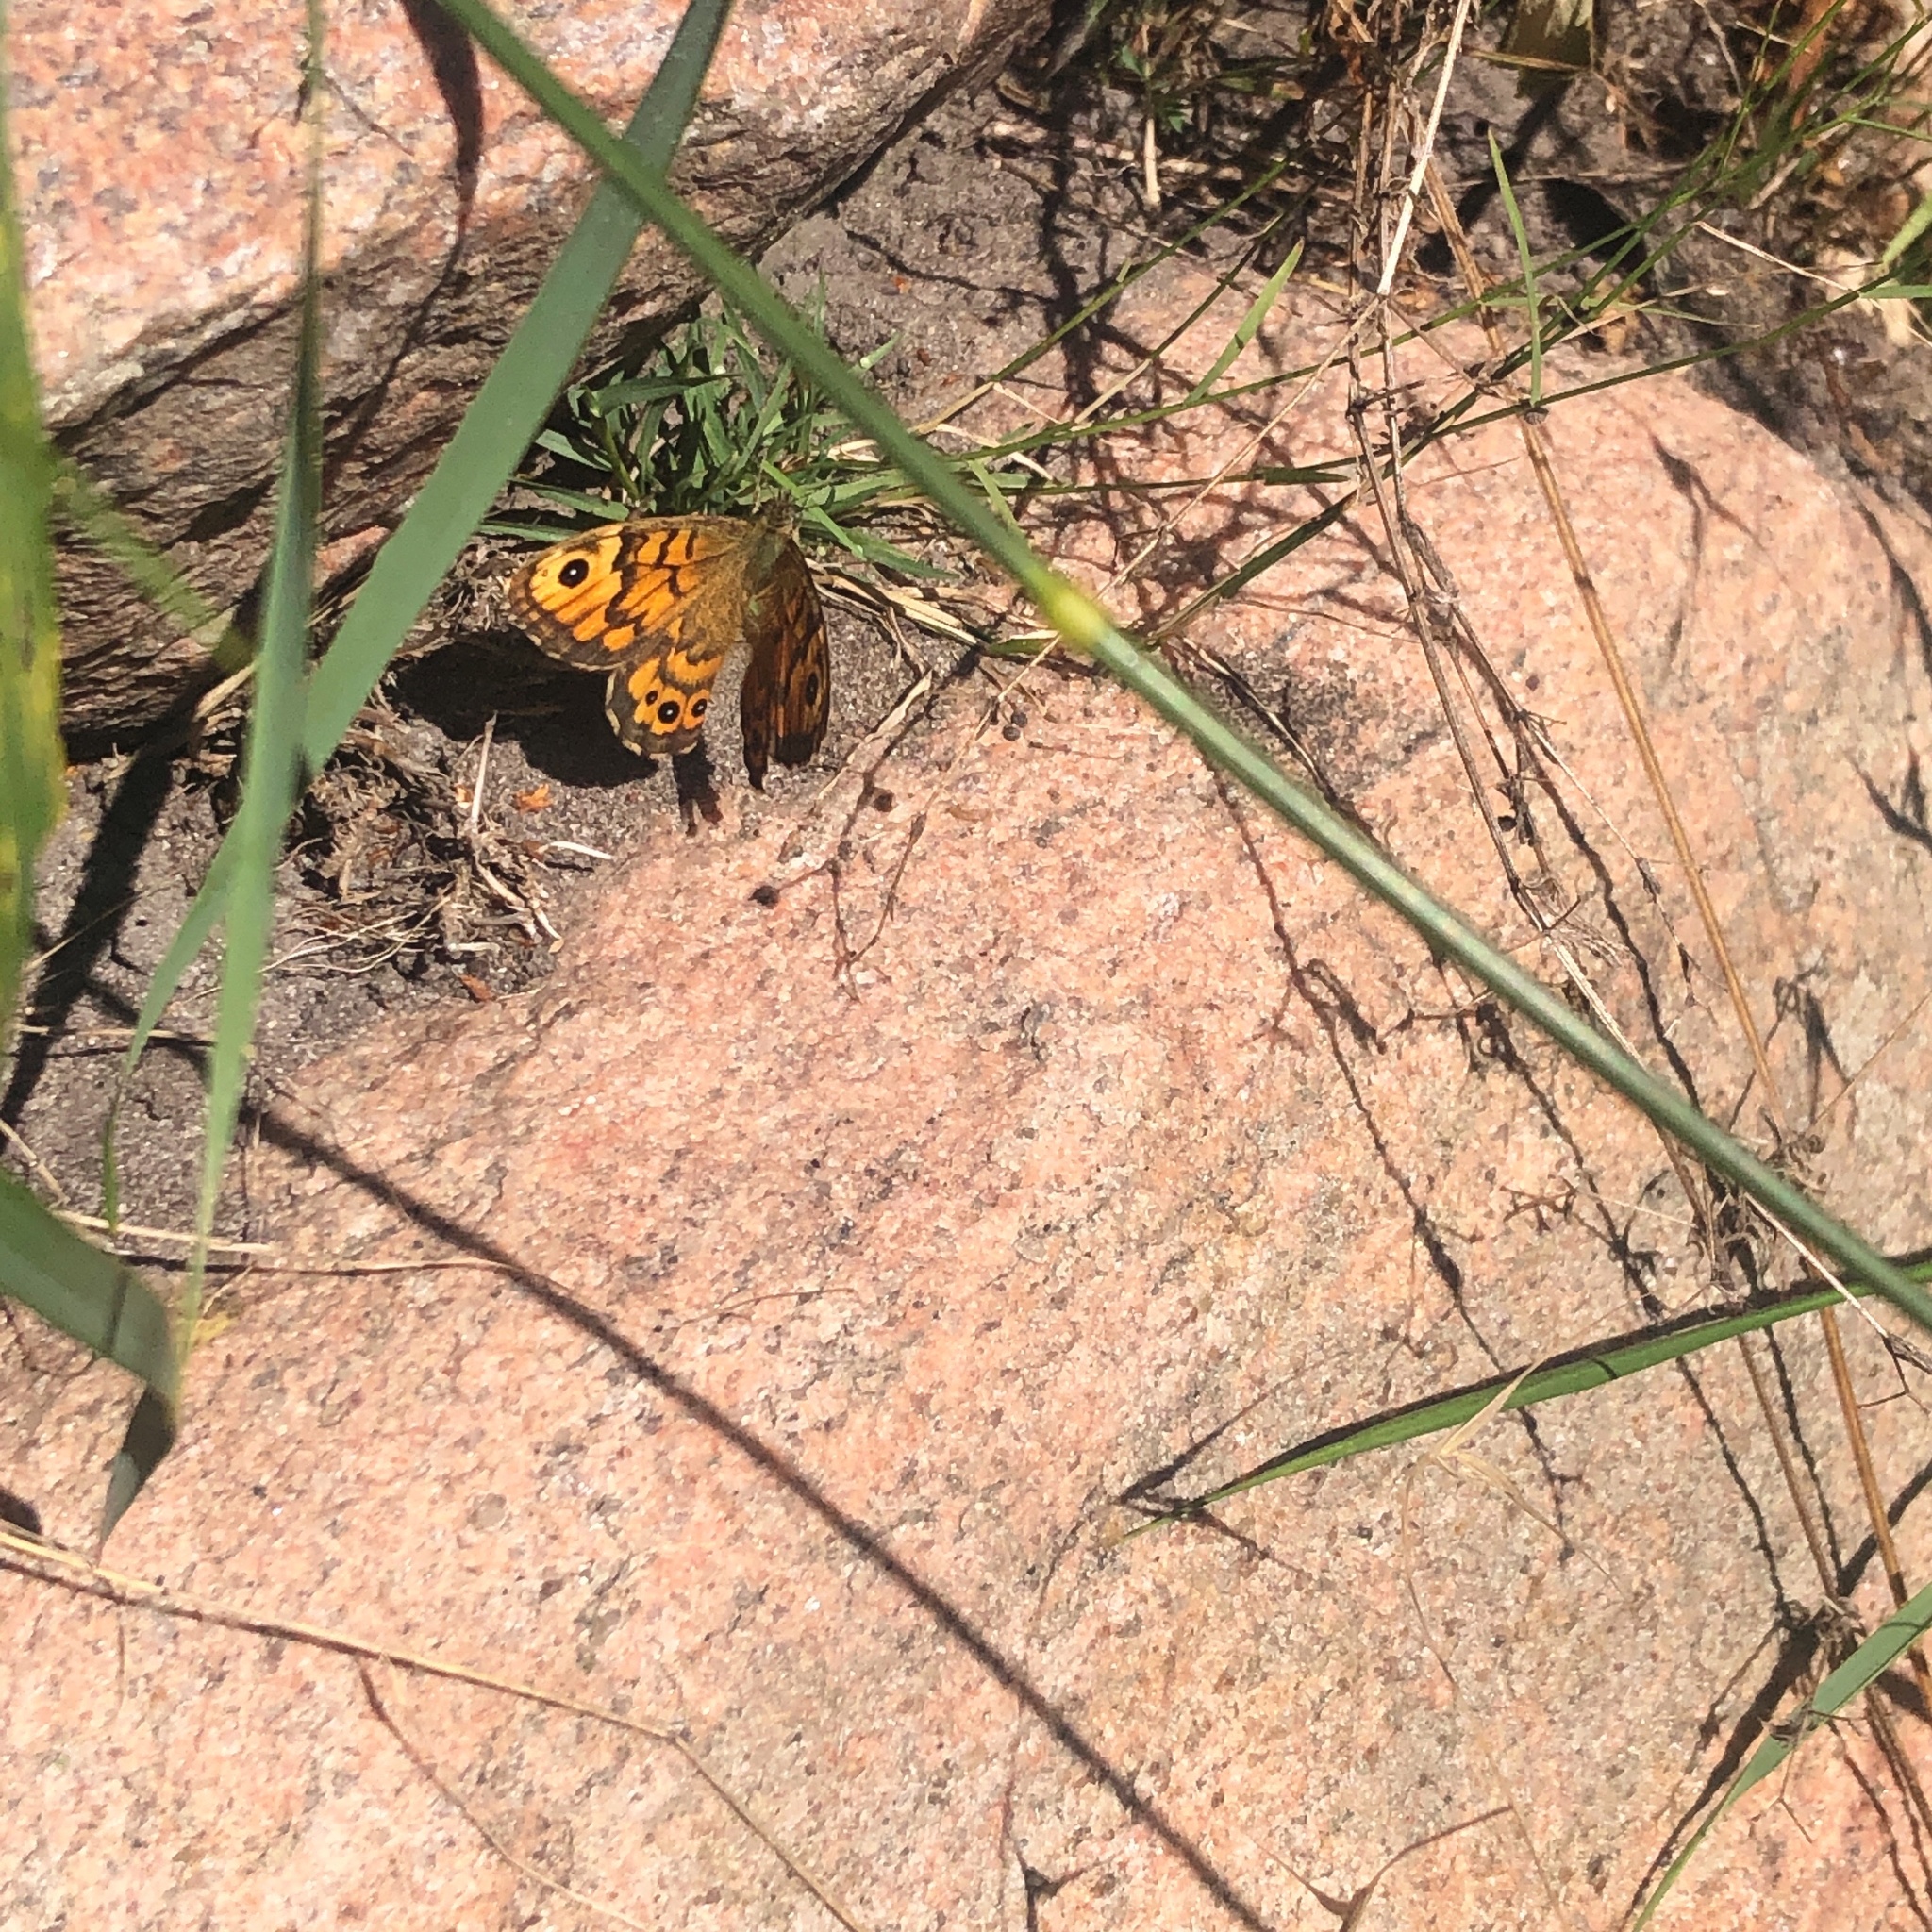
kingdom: Animalia
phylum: Arthropoda
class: Insecta
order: Lepidoptera
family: Nymphalidae
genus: Pararge
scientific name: Pararge Lasiommata megera
